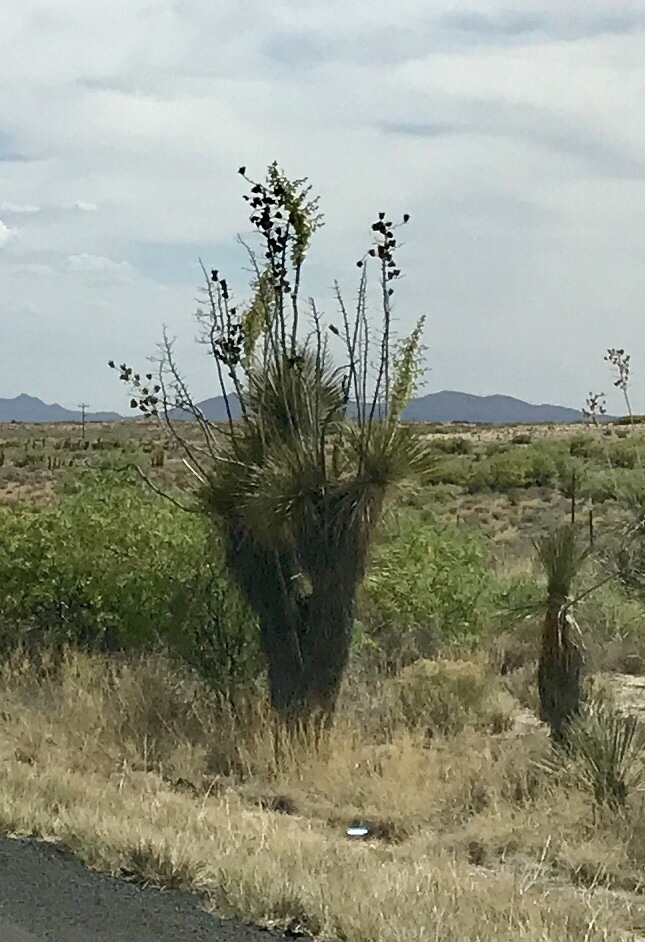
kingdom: Plantae
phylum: Tracheophyta
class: Liliopsida
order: Asparagales
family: Asparagaceae
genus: Yucca
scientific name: Yucca elata
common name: Palmella
